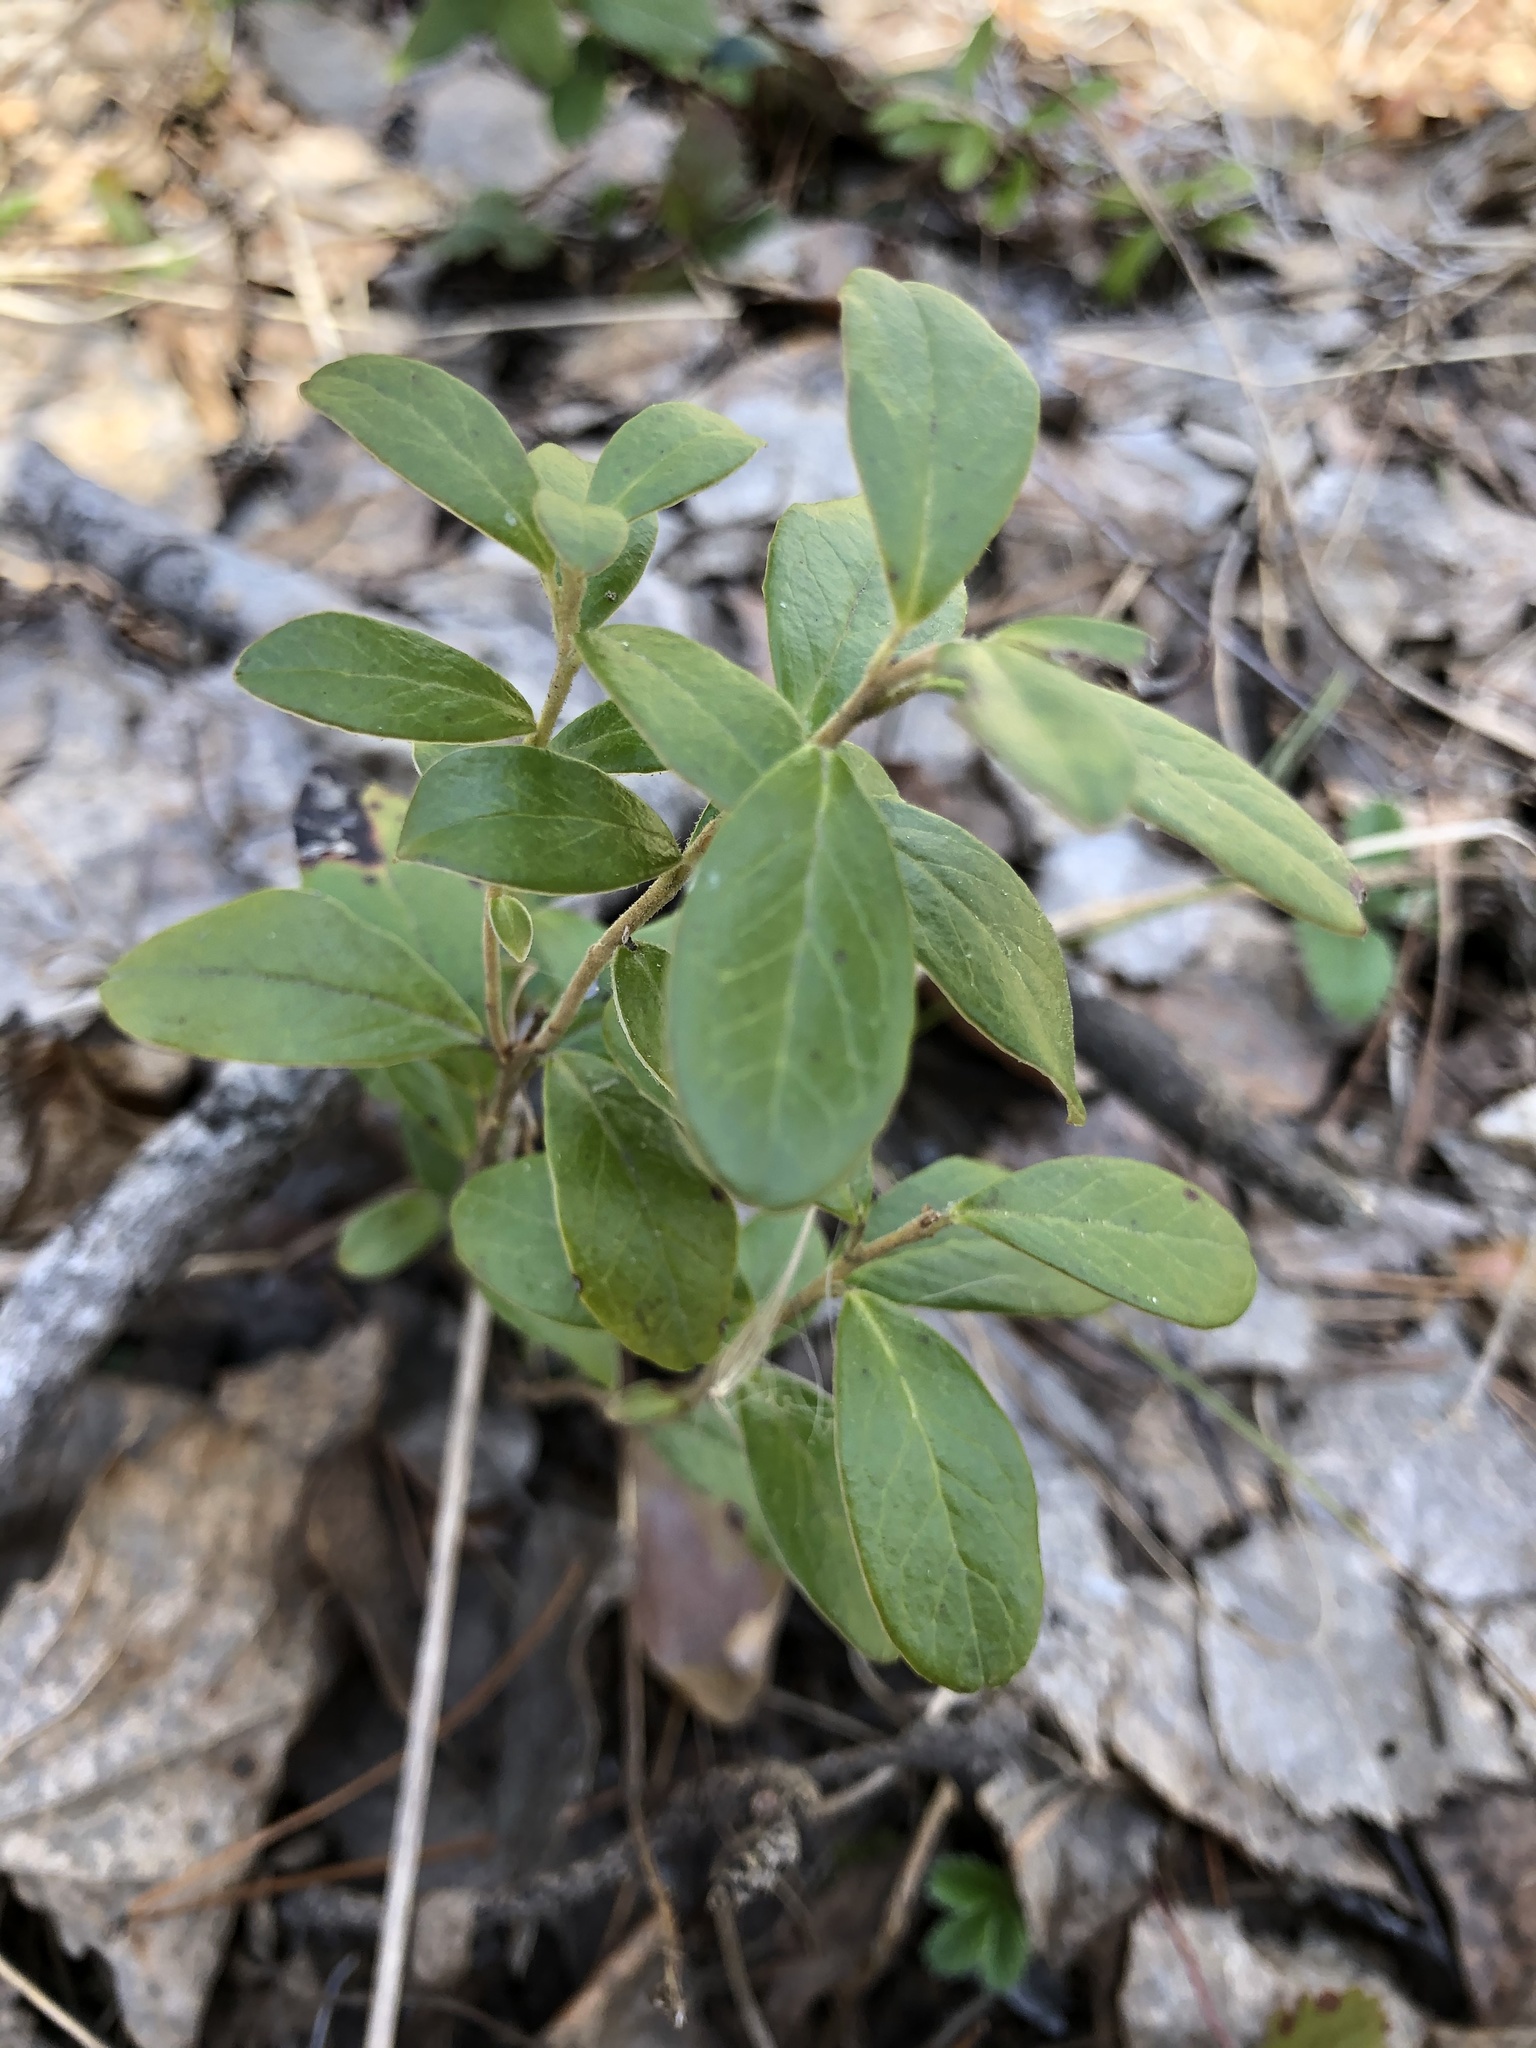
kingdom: Plantae
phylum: Tracheophyta
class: Magnoliopsida
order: Ericales
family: Ericaceae
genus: Vaccinium
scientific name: Vaccinium vitis-idaea
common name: Cowberry
